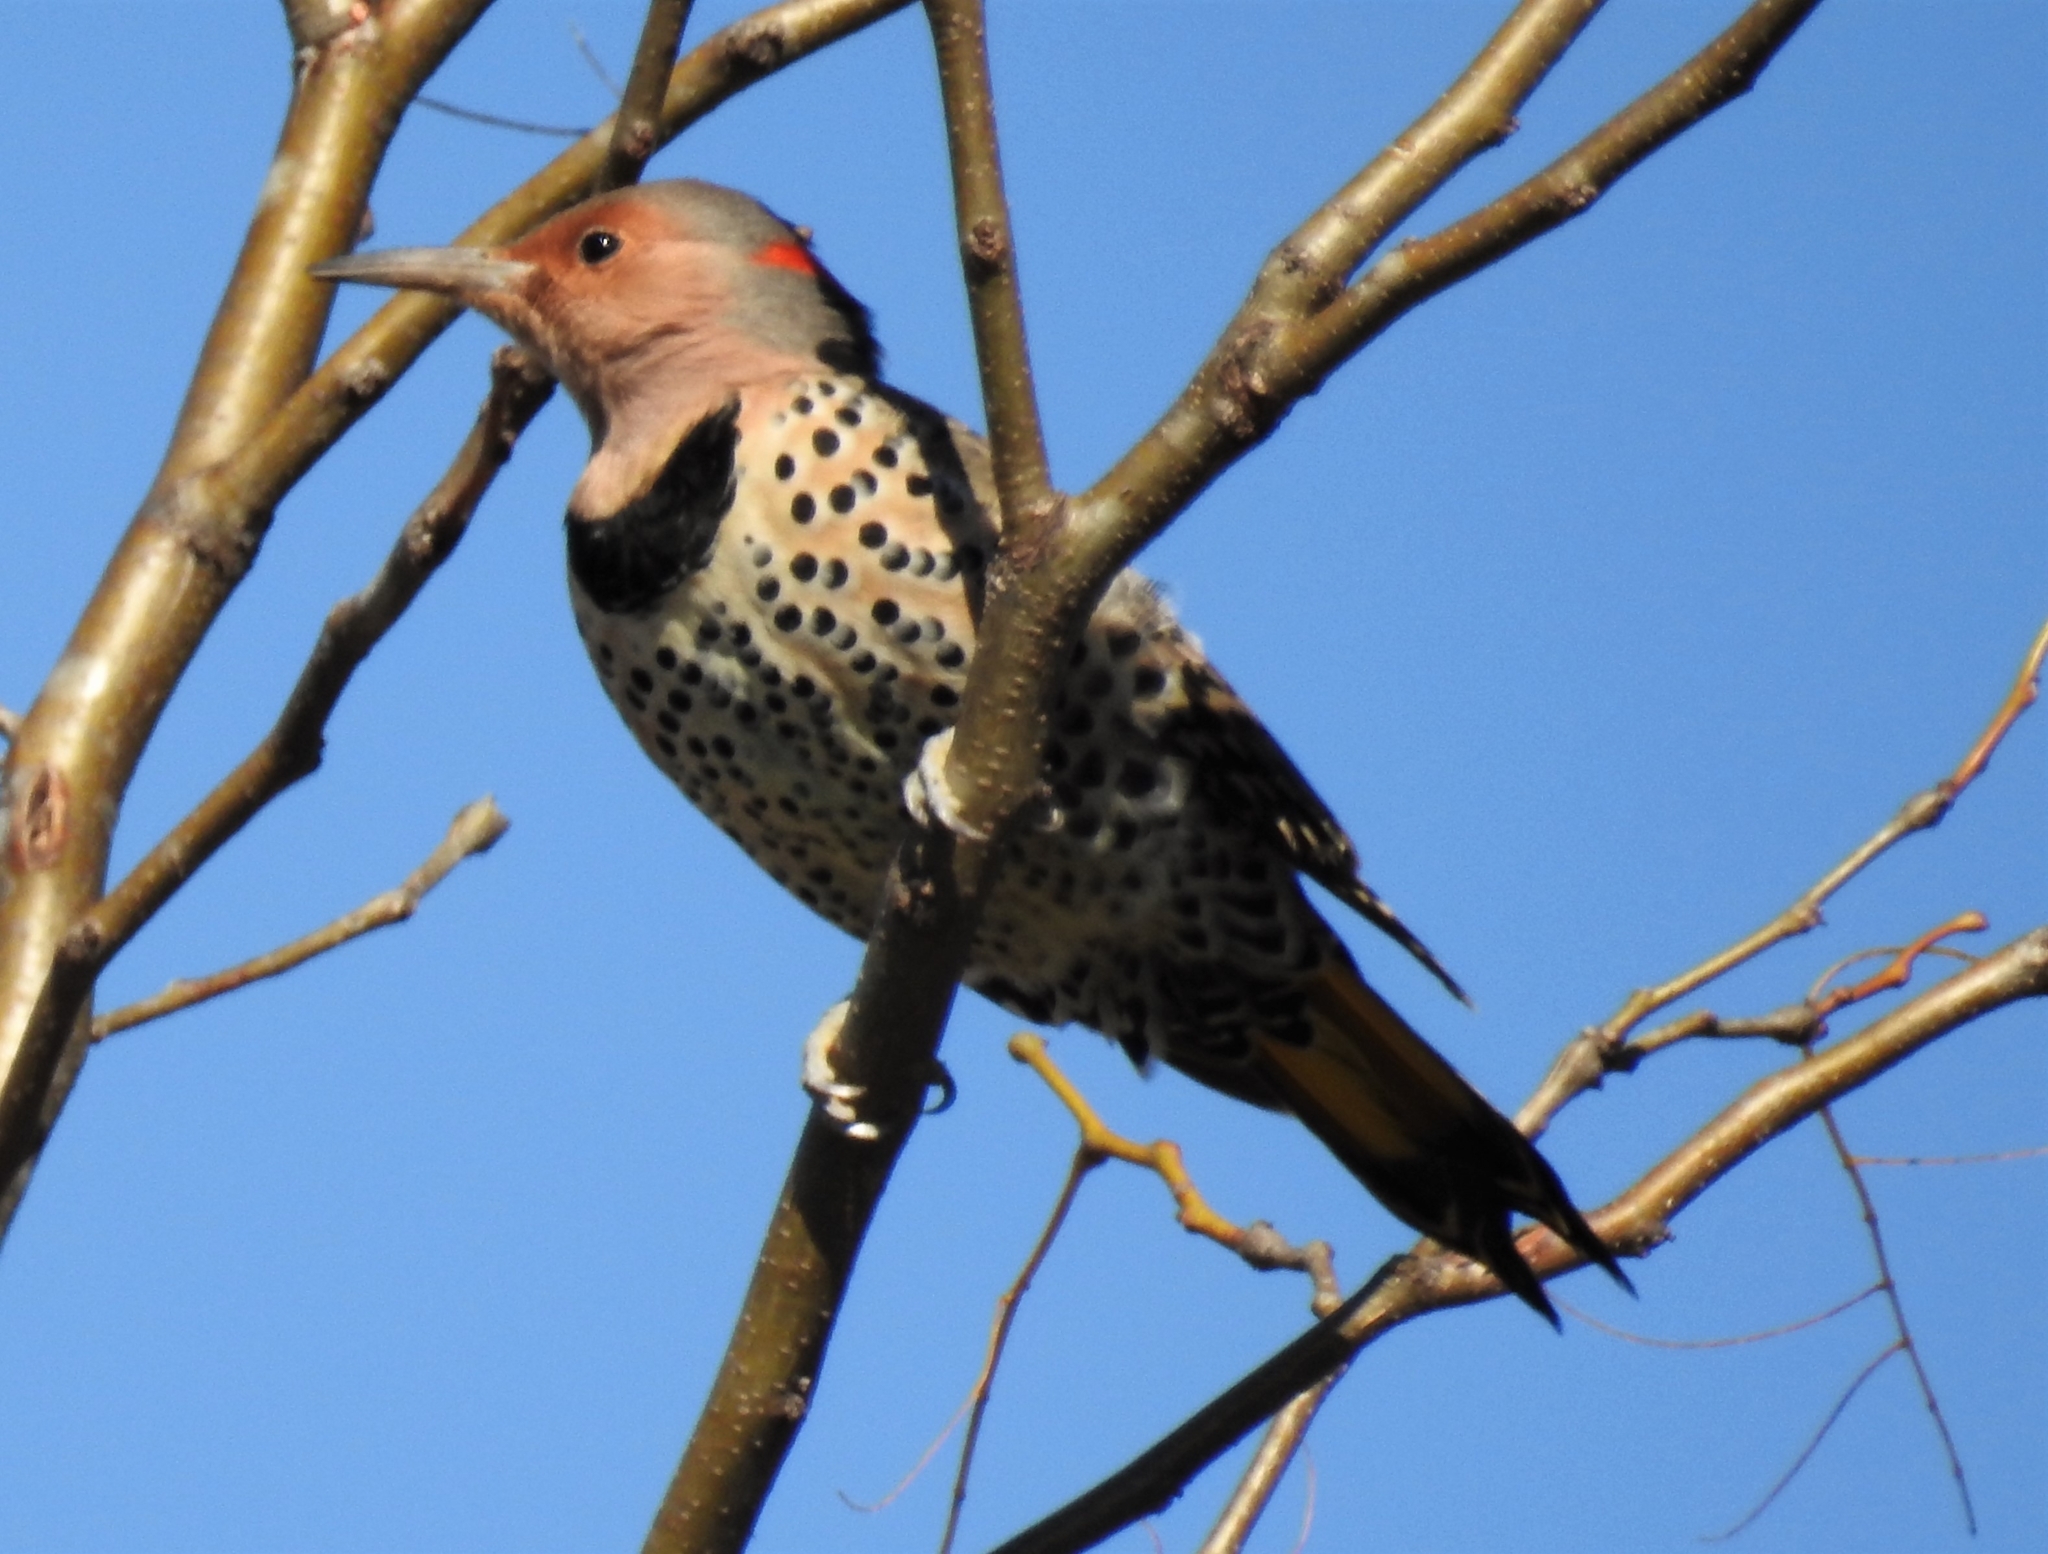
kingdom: Animalia
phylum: Chordata
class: Aves
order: Piciformes
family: Picidae
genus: Colaptes
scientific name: Colaptes auratus
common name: Northern flicker
